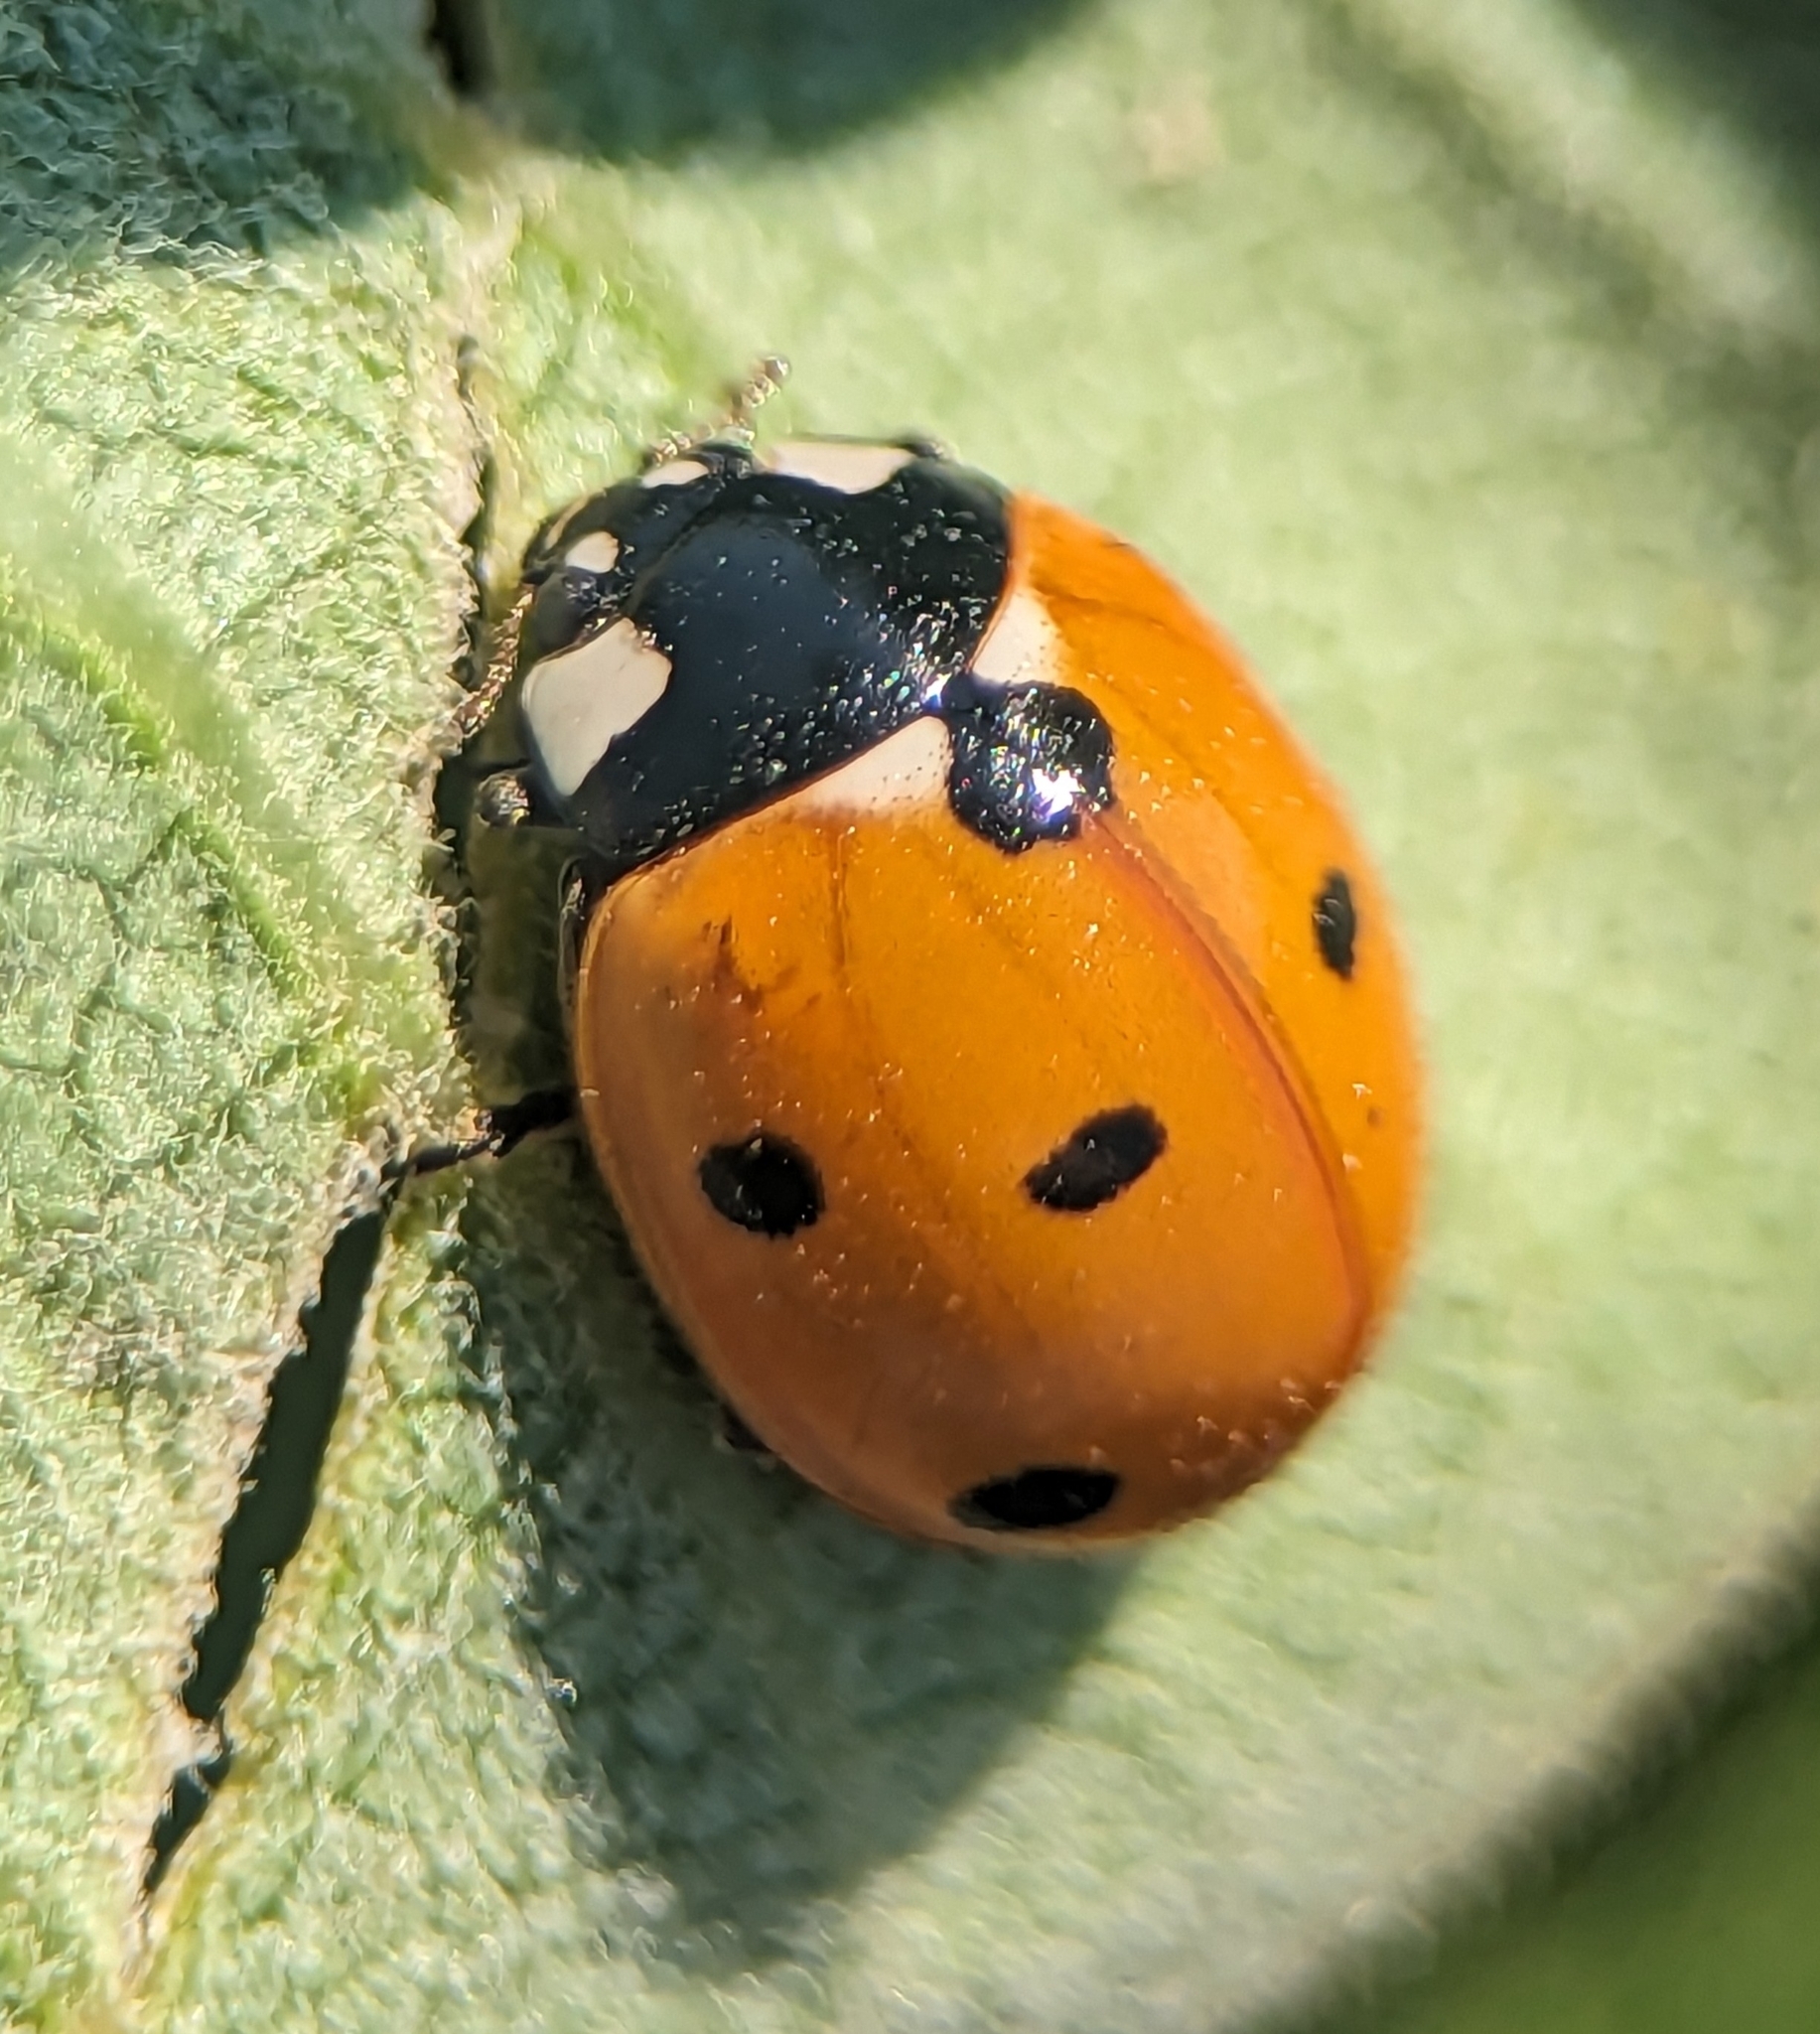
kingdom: Animalia
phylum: Arthropoda
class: Insecta
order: Coleoptera
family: Coccinellidae
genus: Coccinella
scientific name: Coccinella septempunctata
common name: Sevenspotted lady beetle
